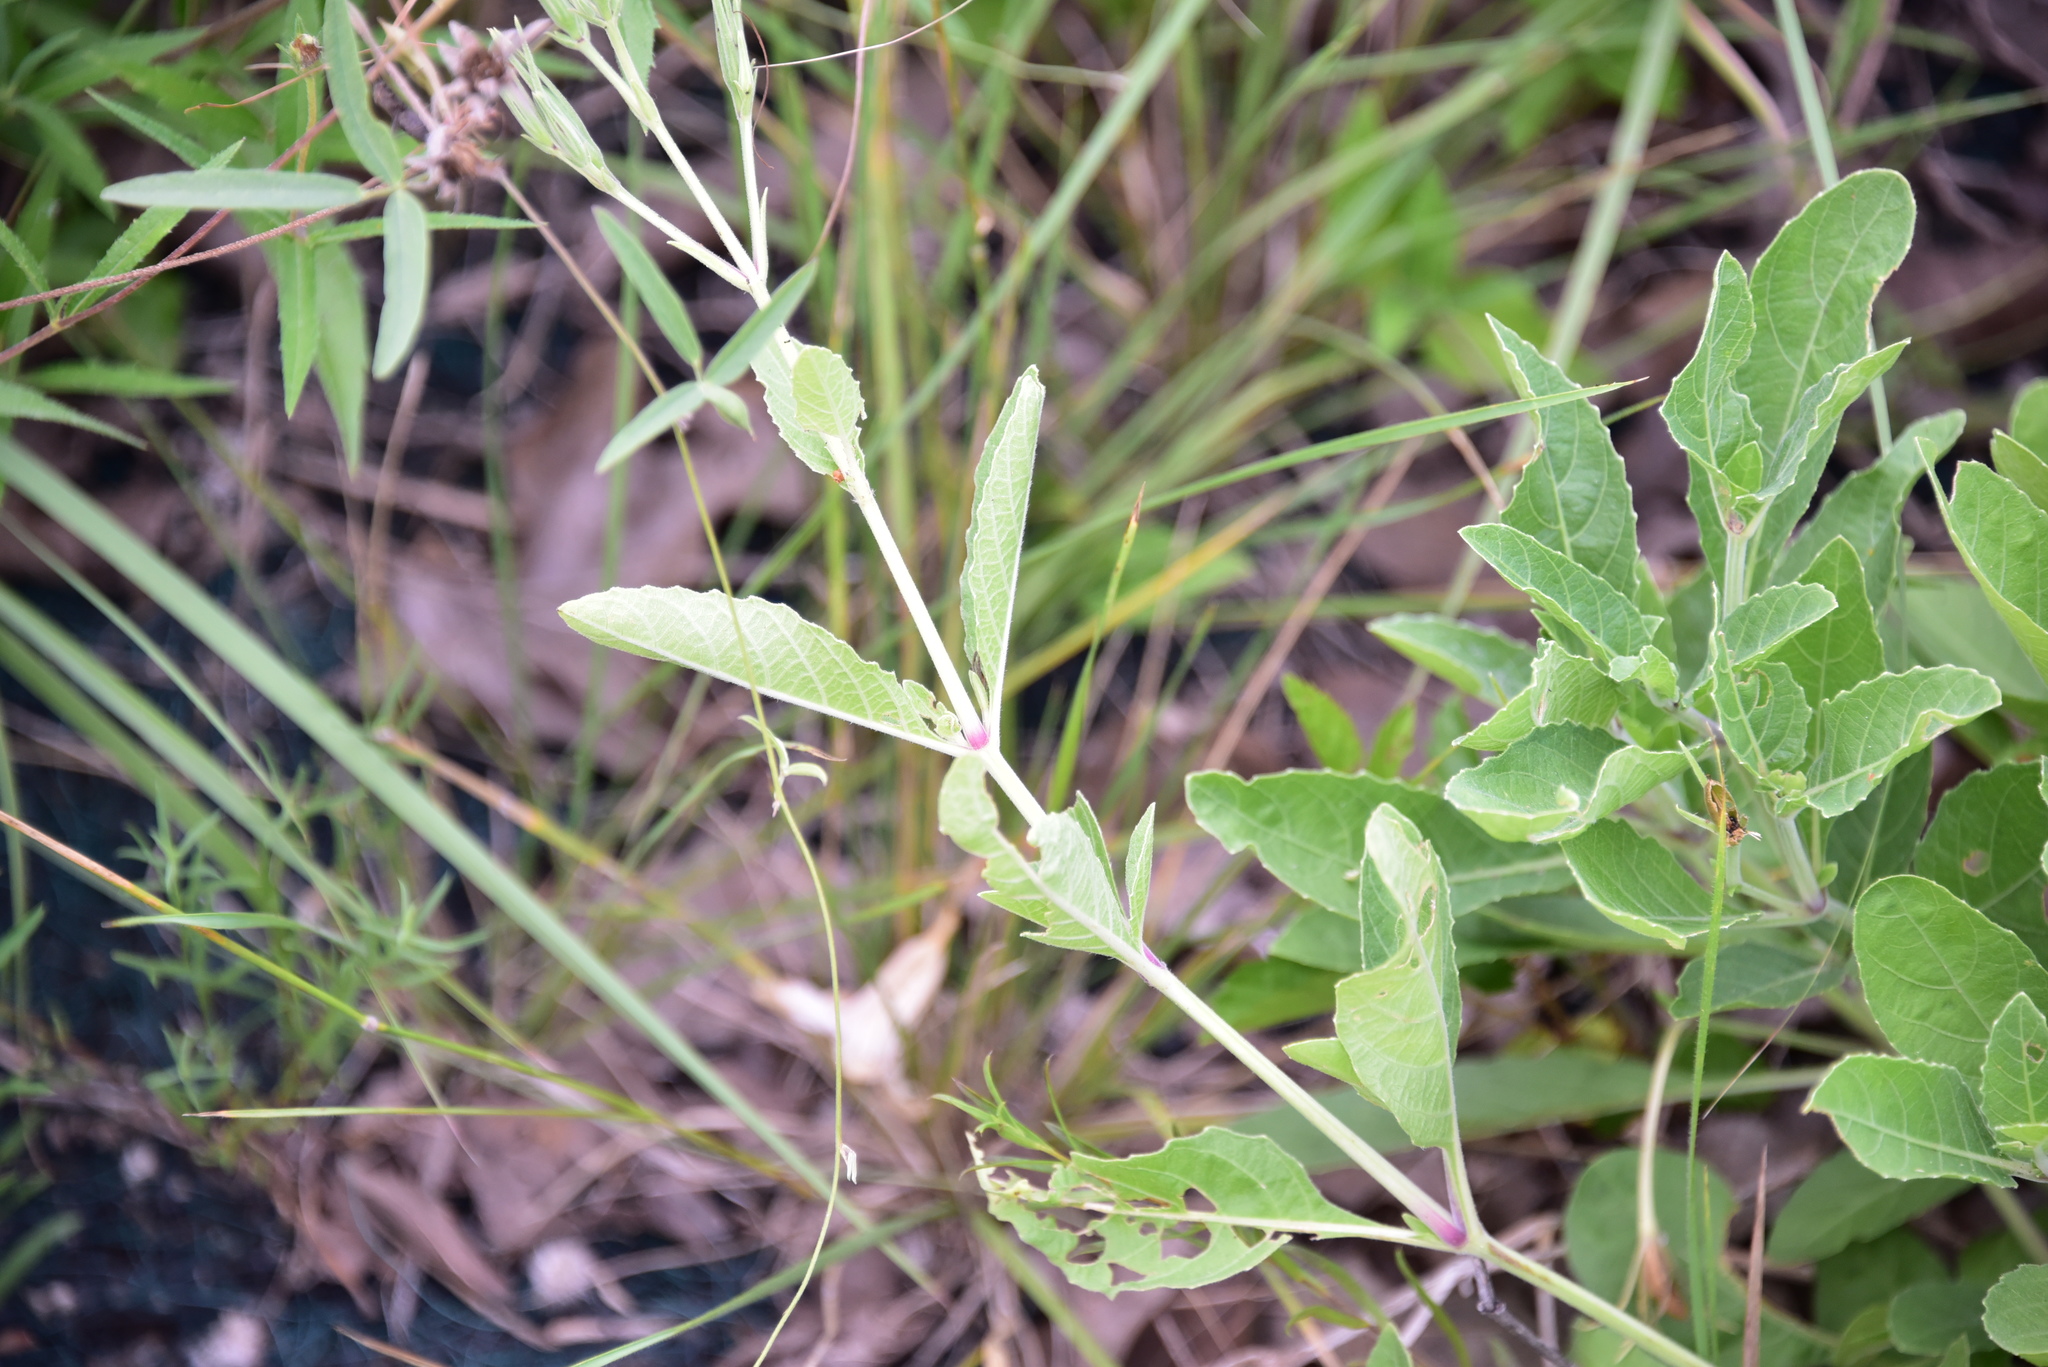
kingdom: Plantae
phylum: Tracheophyta
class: Magnoliopsida
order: Lamiales
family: Acanthaceae
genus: Ruellia
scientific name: Ruellia metziae
